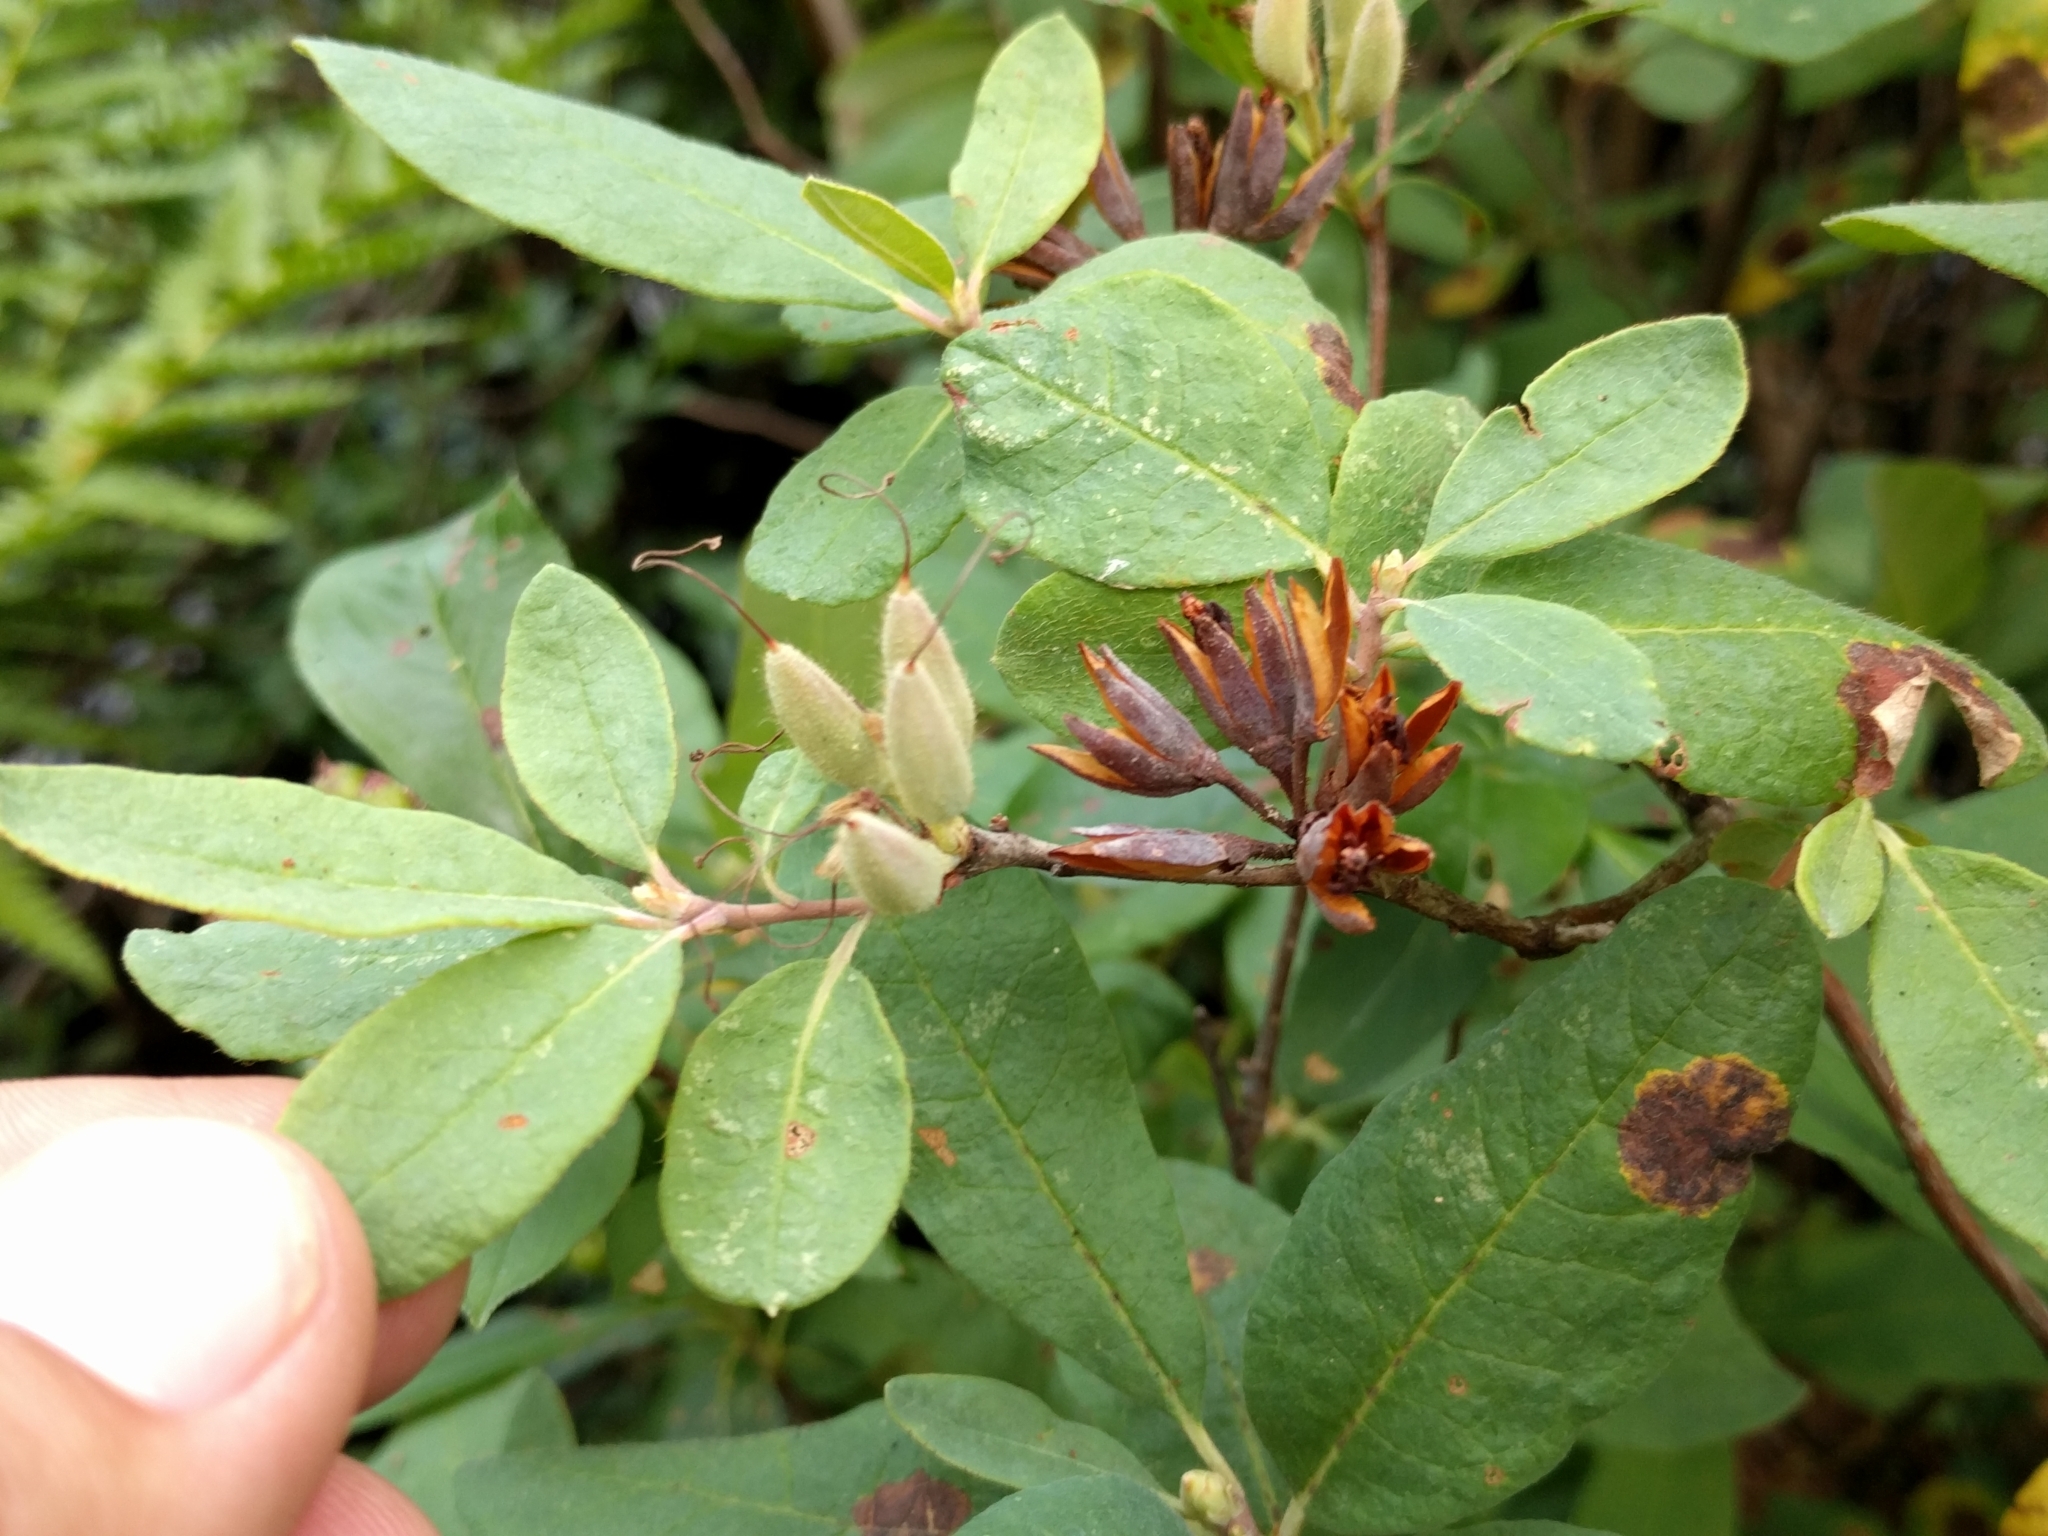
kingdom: Plantae
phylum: Tracheophyta
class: Magnoliopsida
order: Ericales
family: Ericaceae
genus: Rhododendron
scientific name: Rhododendron canadense
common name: Rhodora
